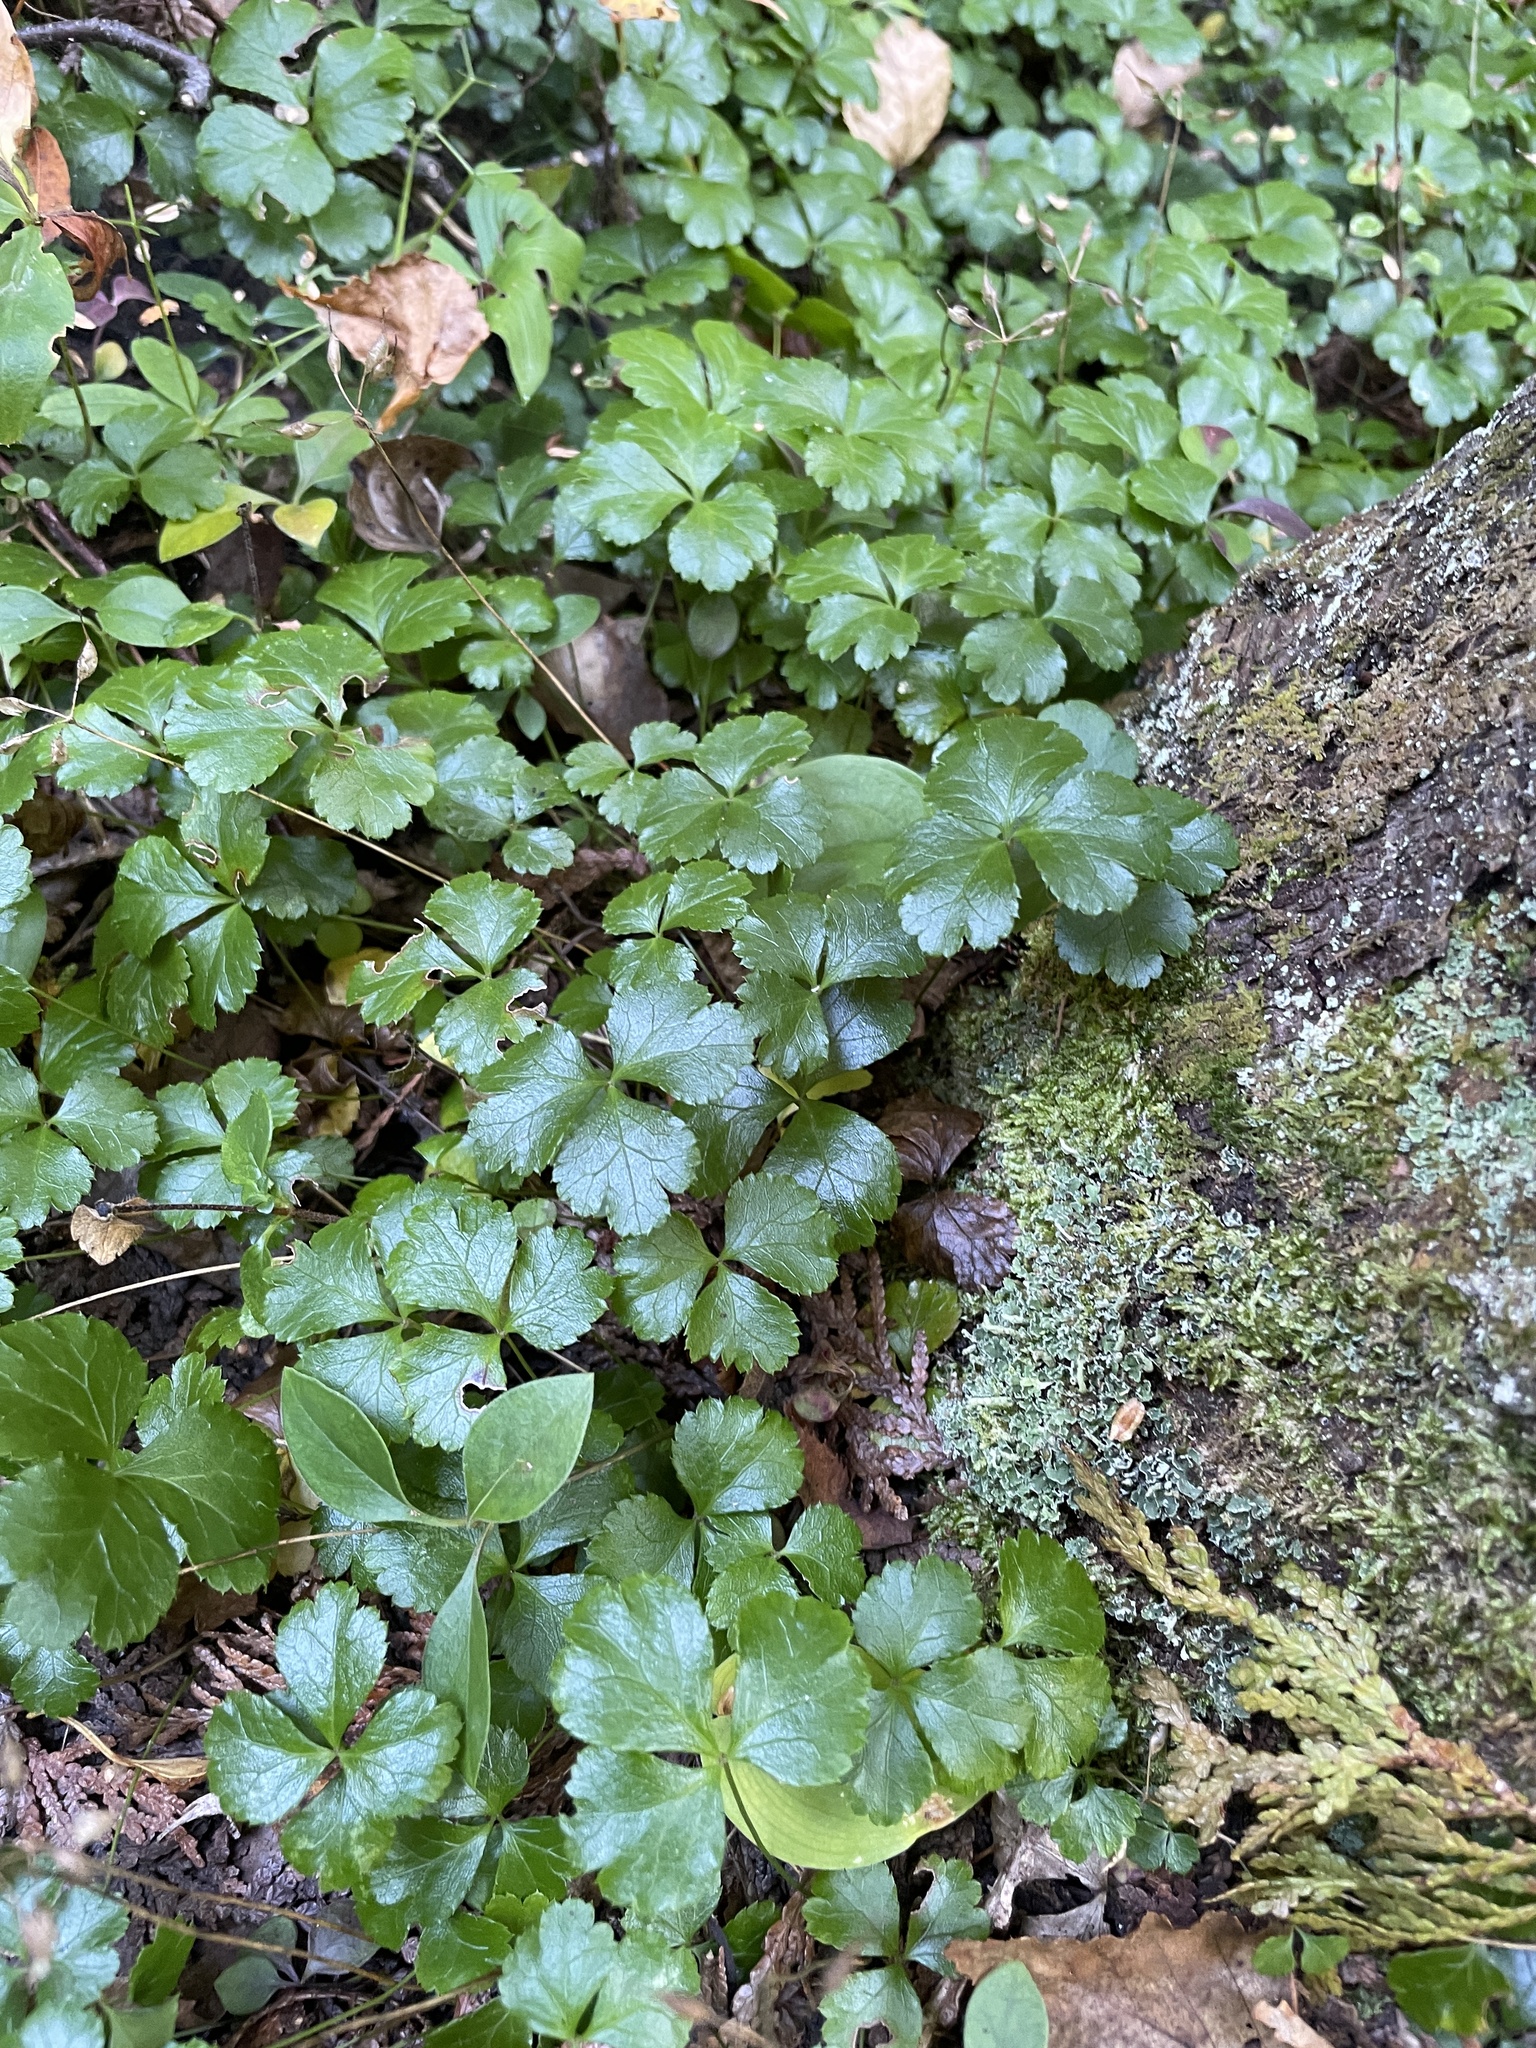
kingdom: Plantae
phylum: Tracheophyta
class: Magnoliopsida
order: Ranunculales
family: Ranunculaceae
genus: Coptis
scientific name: Coptis trifolia
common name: Canker-root
